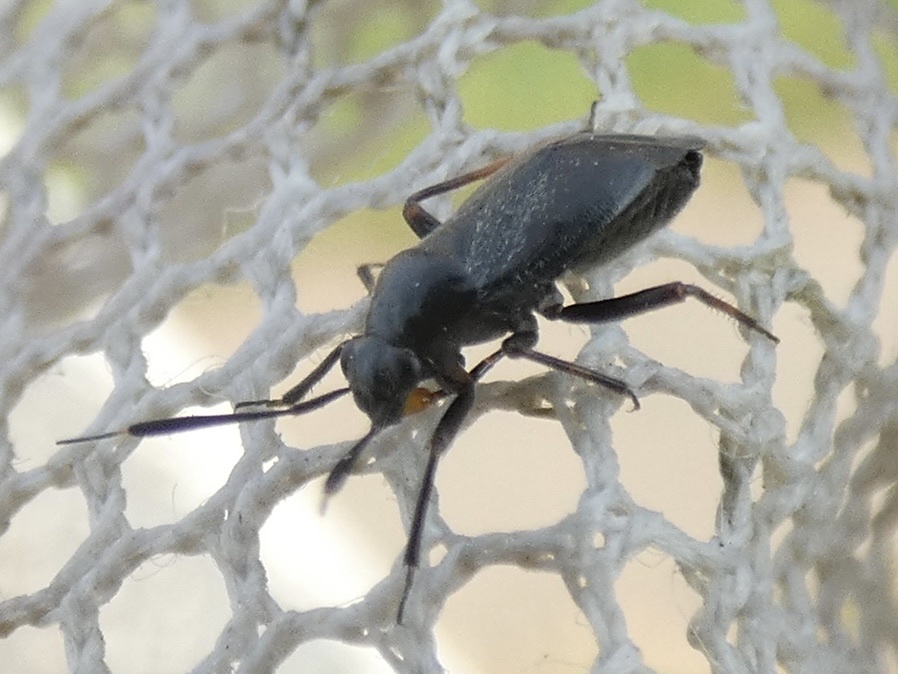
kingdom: Animalia
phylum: Arthropoda
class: Insecta
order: Hemiptera
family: Miridae
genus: Capsus
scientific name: Capsus ater
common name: Black plant bug
